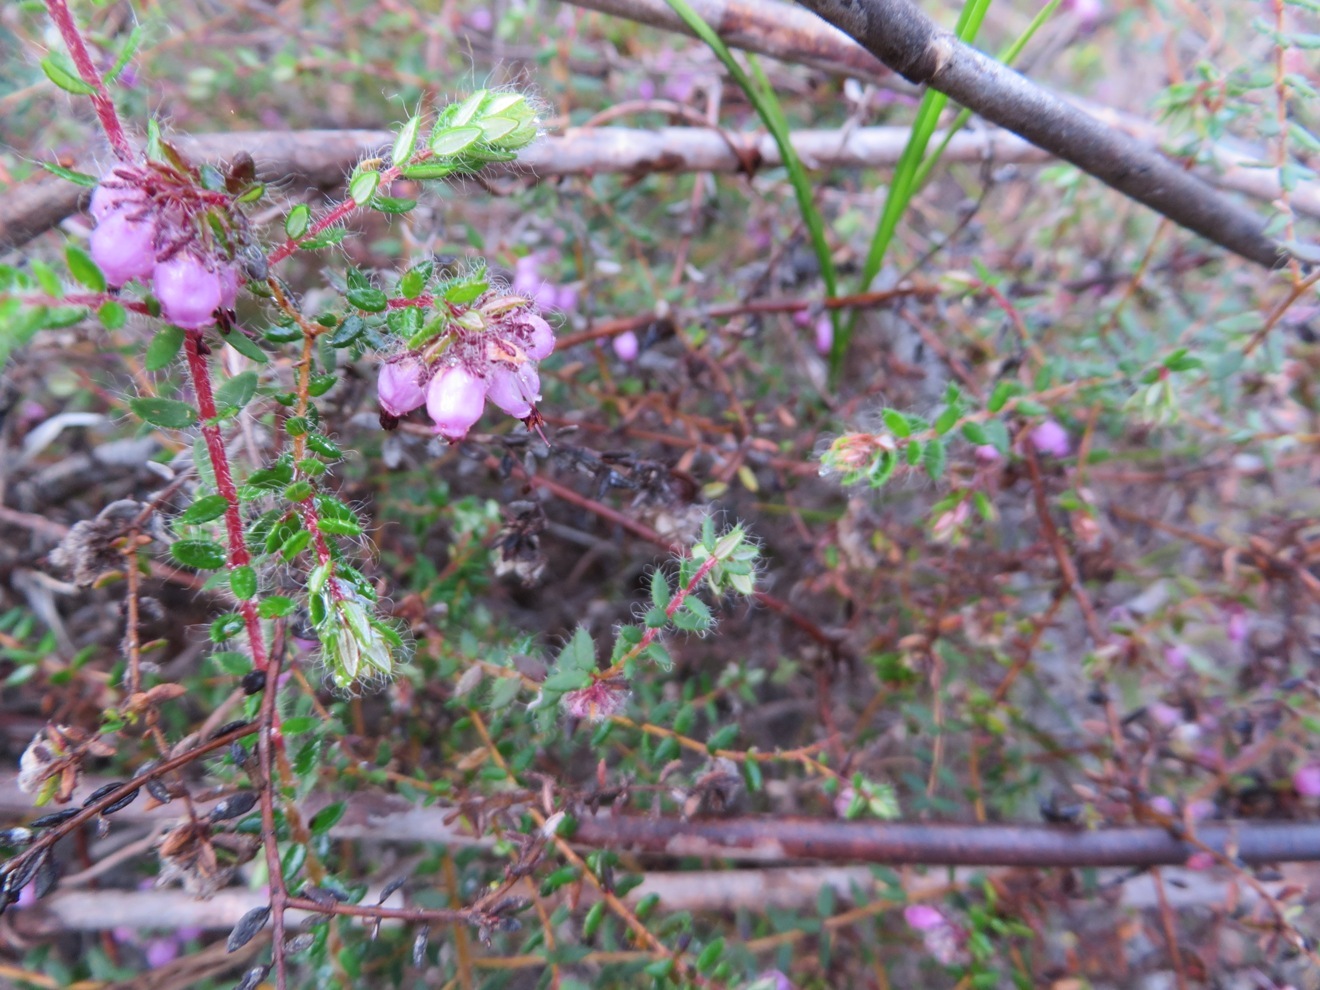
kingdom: Plantae
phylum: Tracheophyta
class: Magnoliopsida
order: Ericales
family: Ericaceae
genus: Erica
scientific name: Erica riparia
